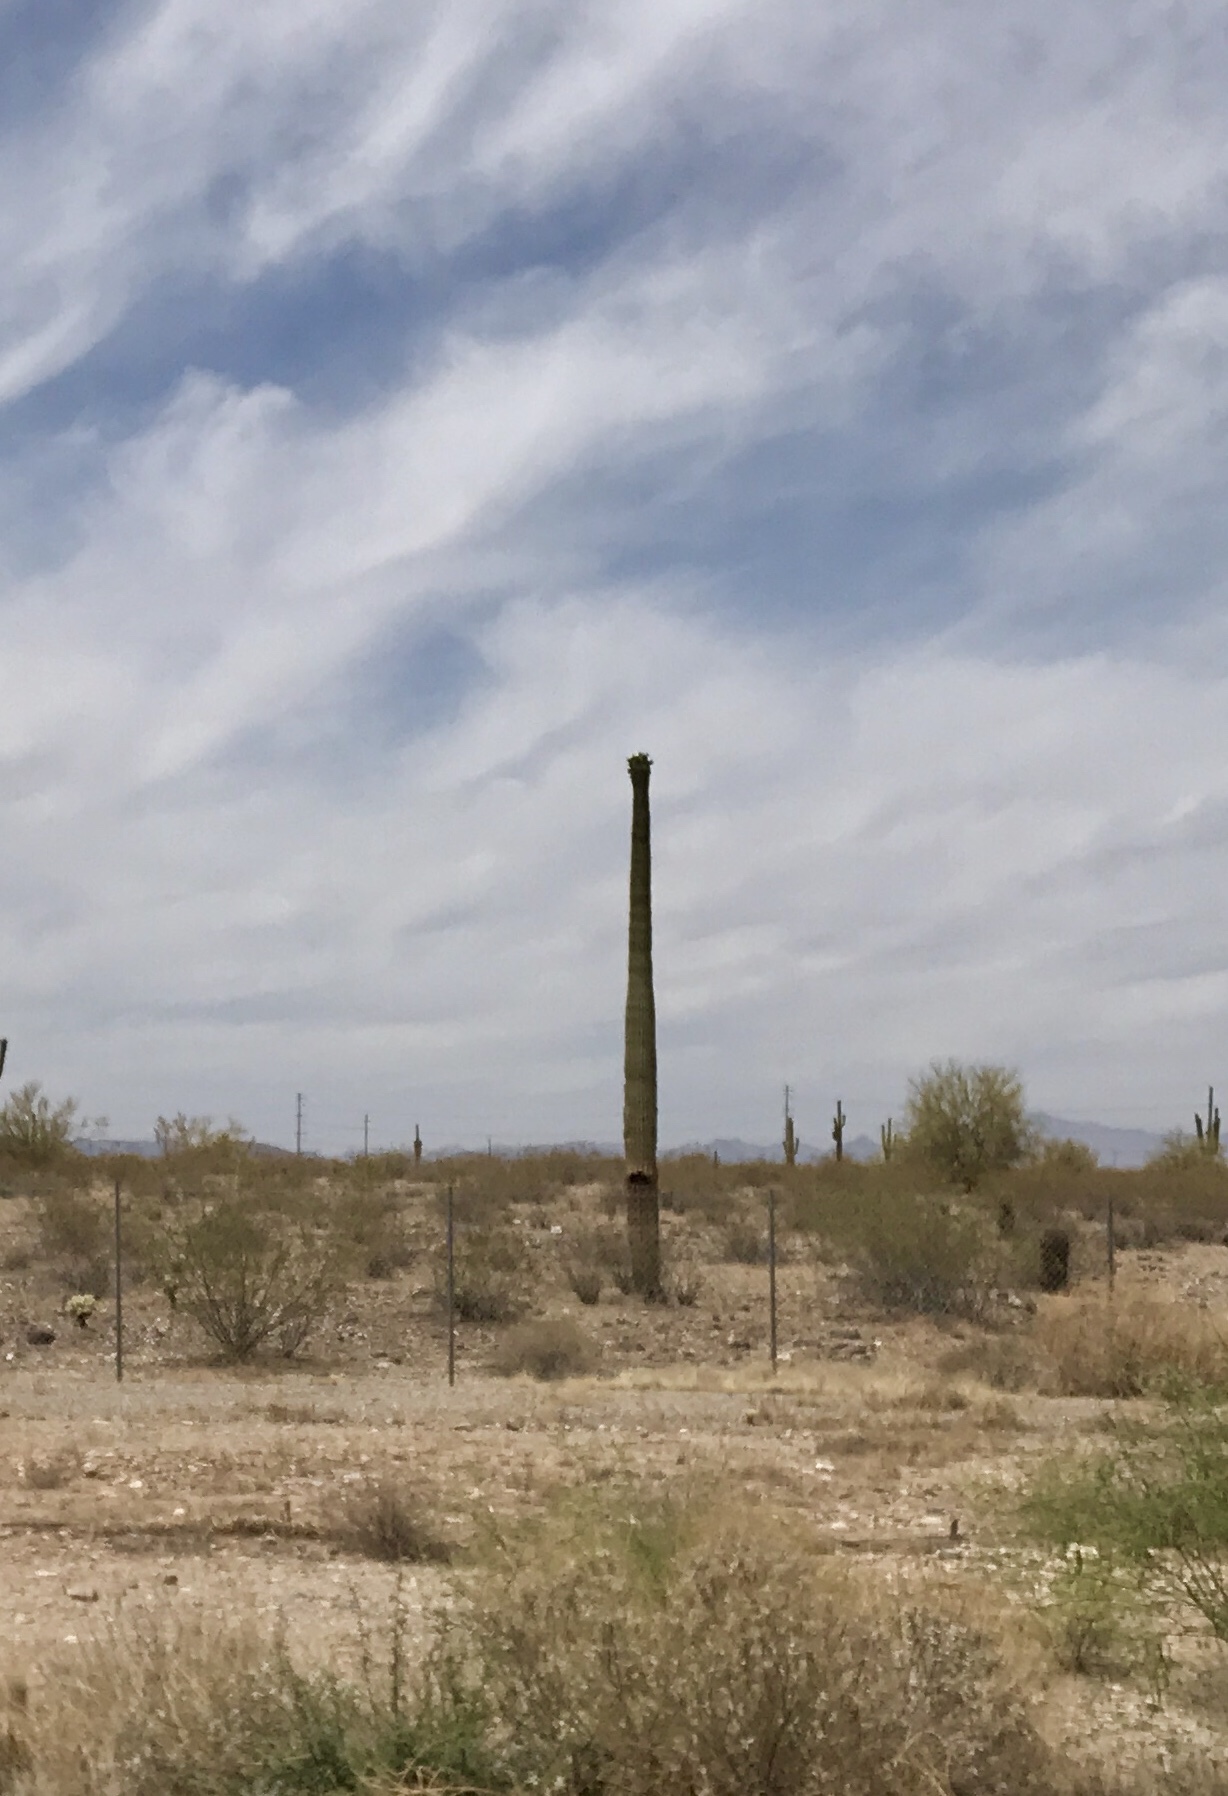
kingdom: Plantae
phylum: Tracheophyta
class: Magnoliopsida
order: Caryophyllales
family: Cactaceae
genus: Carnegiea
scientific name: Carnegiea gigantea
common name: Saguaro
